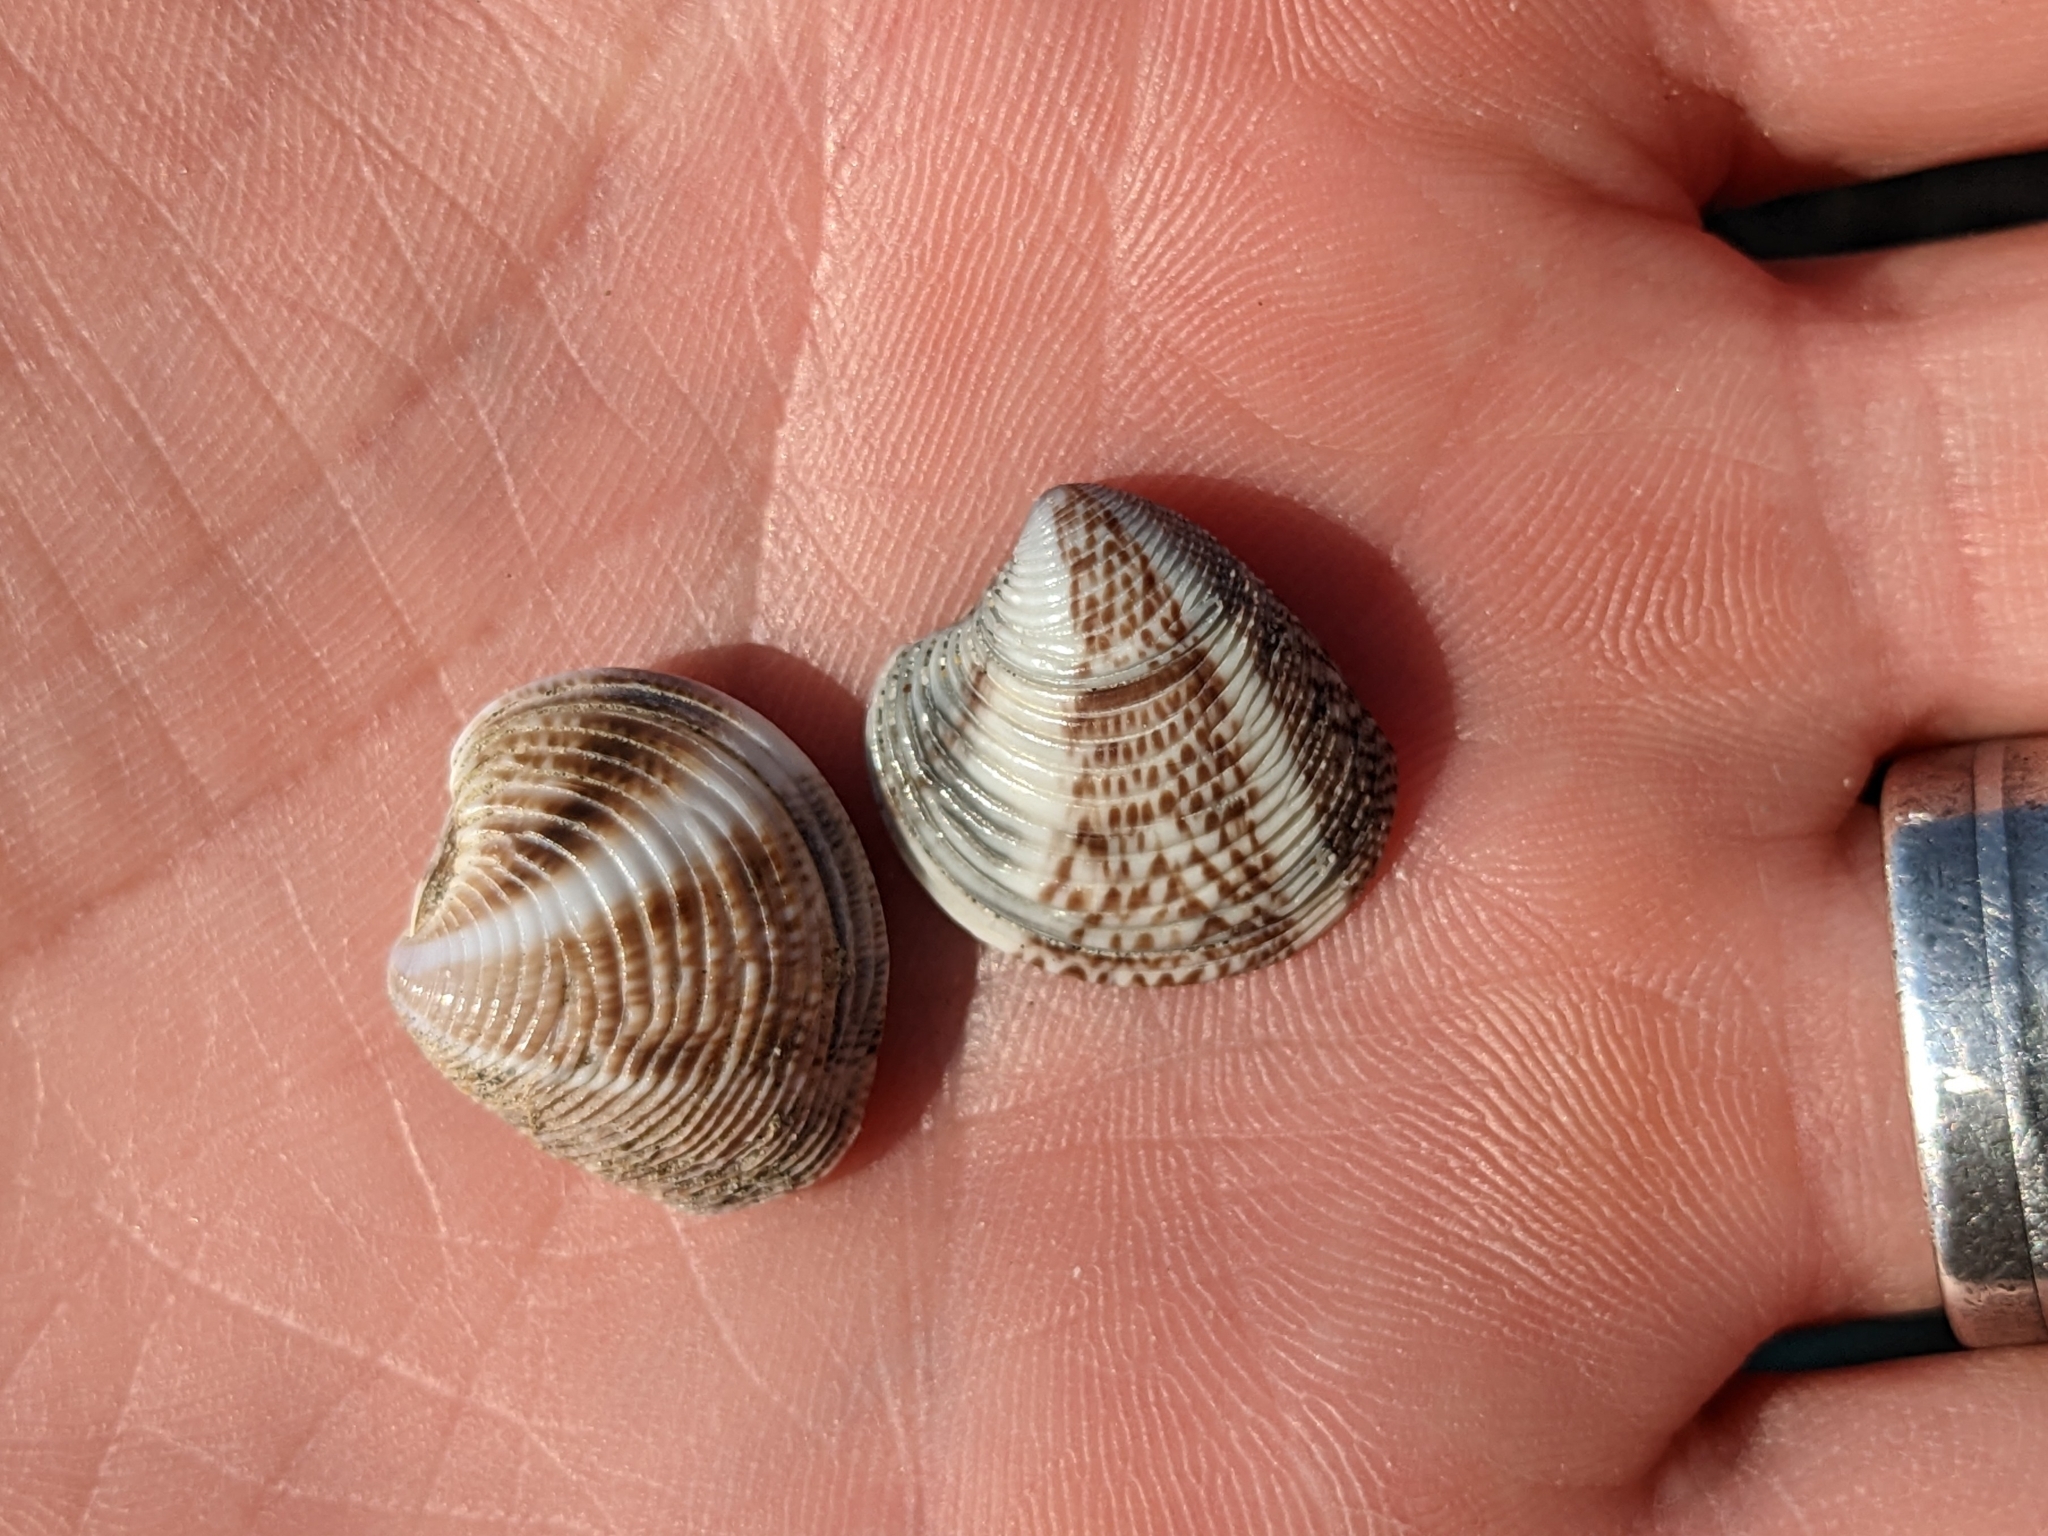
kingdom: Animalia
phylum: Mollusca
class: Bivalvia
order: Venerida
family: Veneridae
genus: Chamelea
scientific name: Chamelea gallina
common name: Chicken venus
